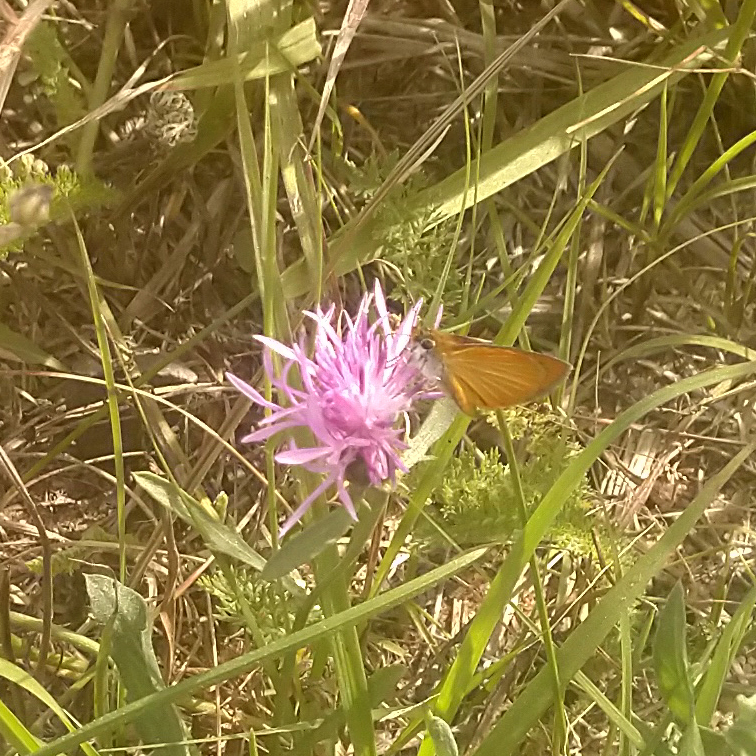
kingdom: Animalia
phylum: Arthropoda
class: Insecta
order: Lepidoptera
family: Hesperiidae
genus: Ancyloxypha
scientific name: Ancyloxypha numitor
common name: Least skipper
